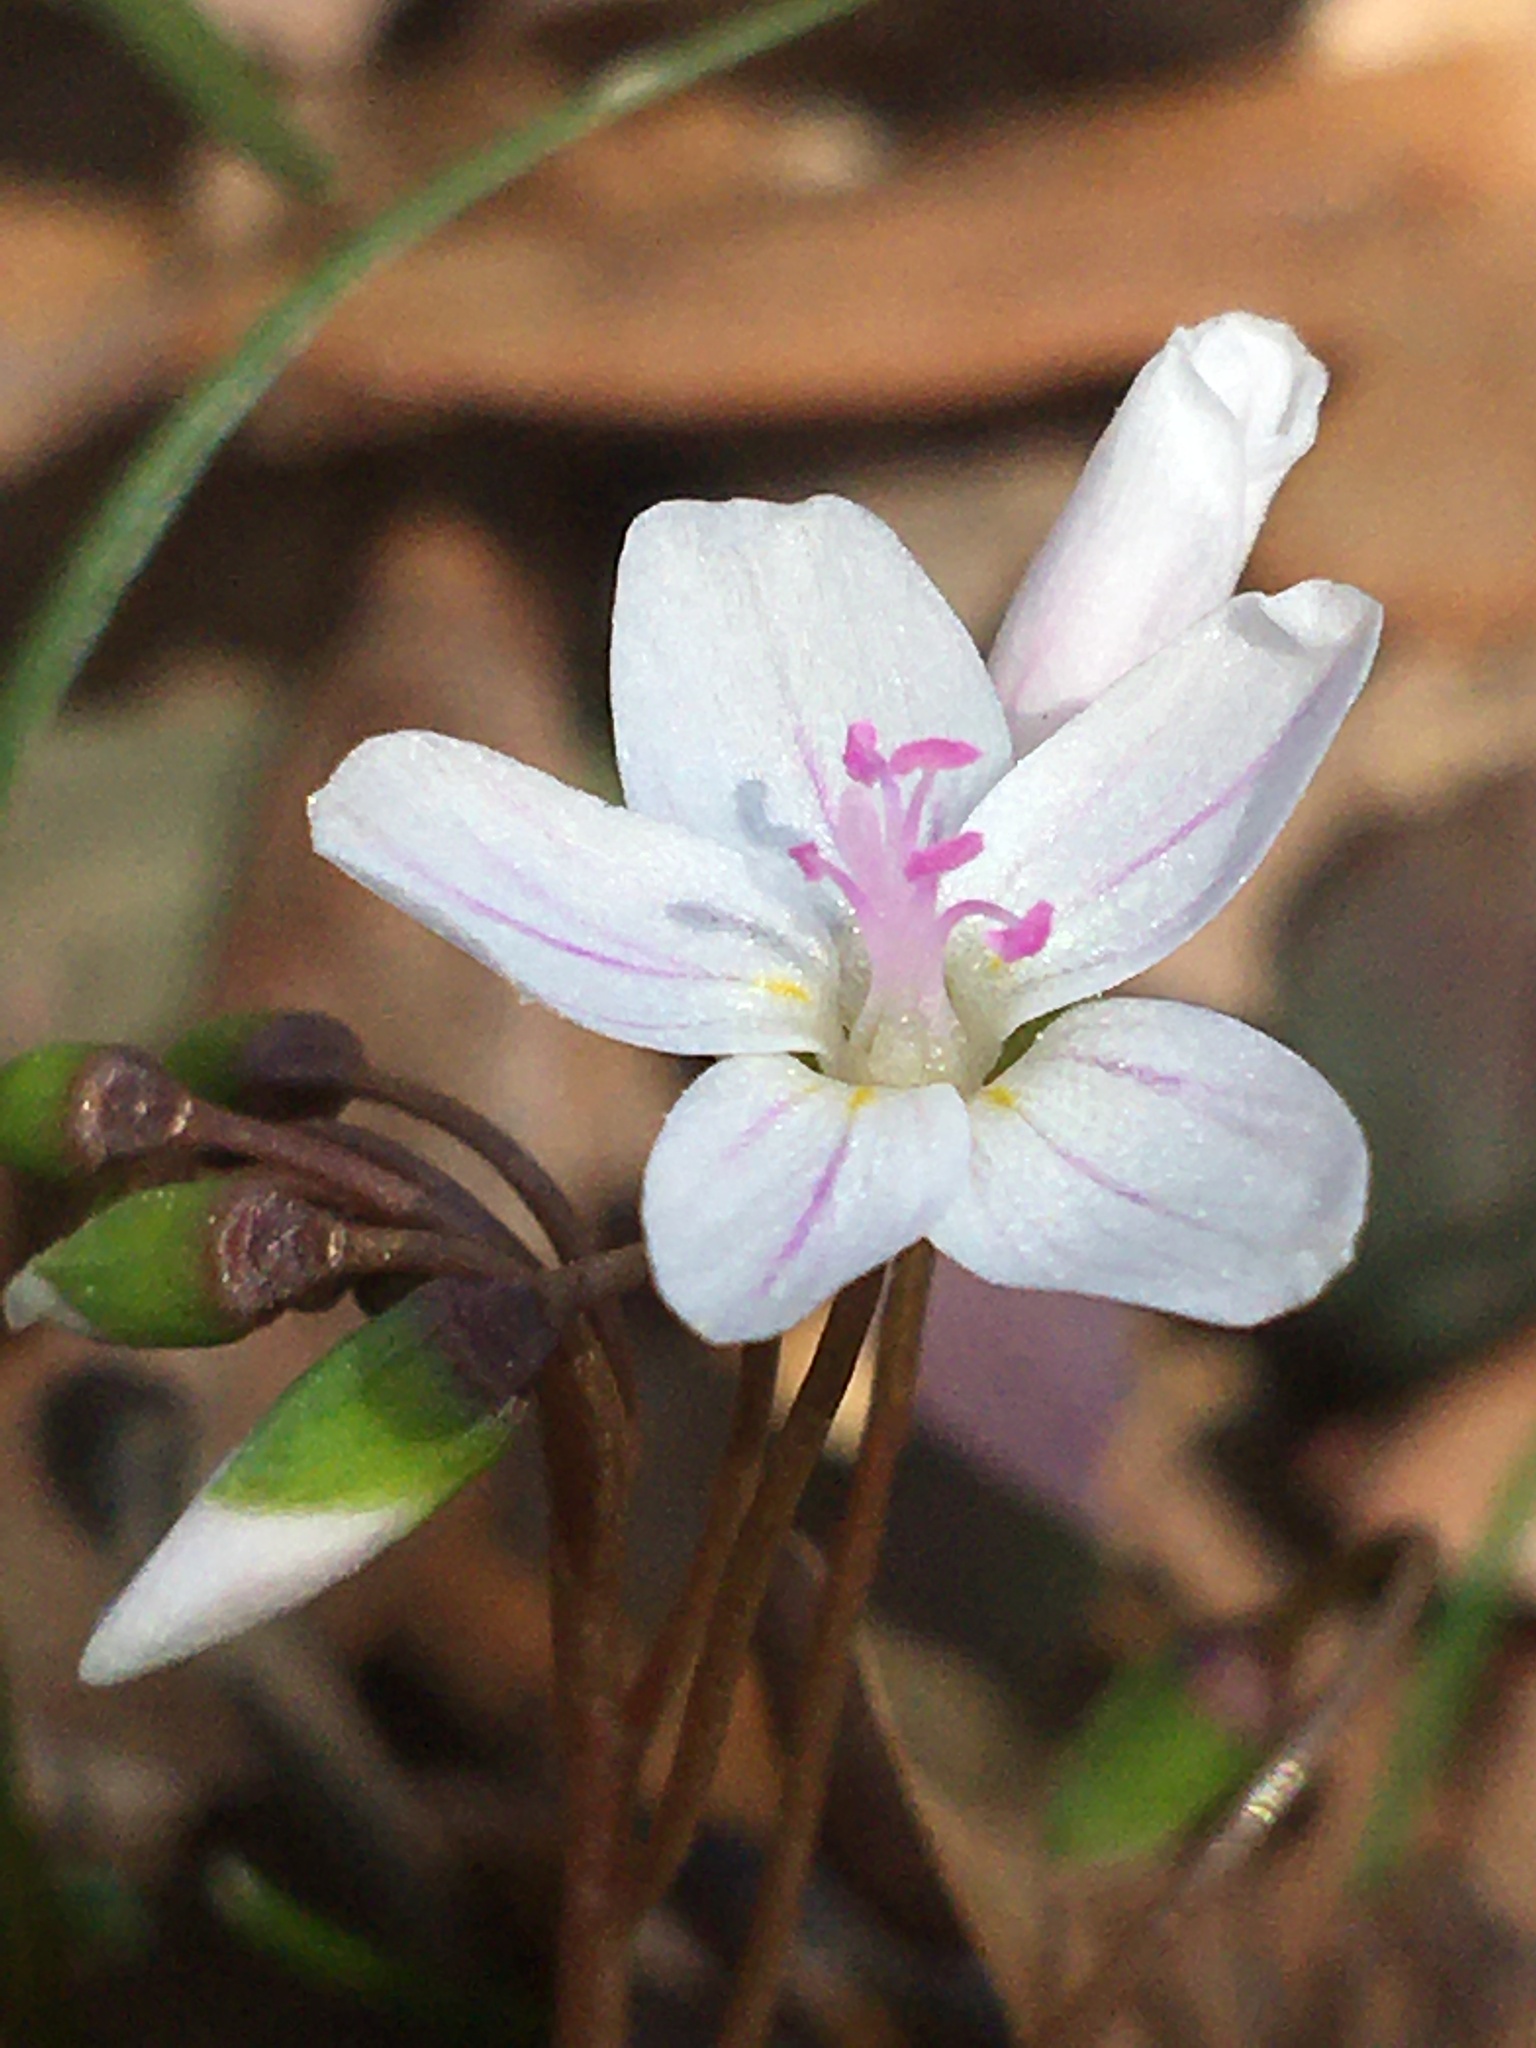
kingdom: Plantae
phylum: Tracheophyta
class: Magnoliopsida
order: Caryophyllales
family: Montiaceae
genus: Claytonia
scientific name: Claytonia virginica
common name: Virginia springbeauty
